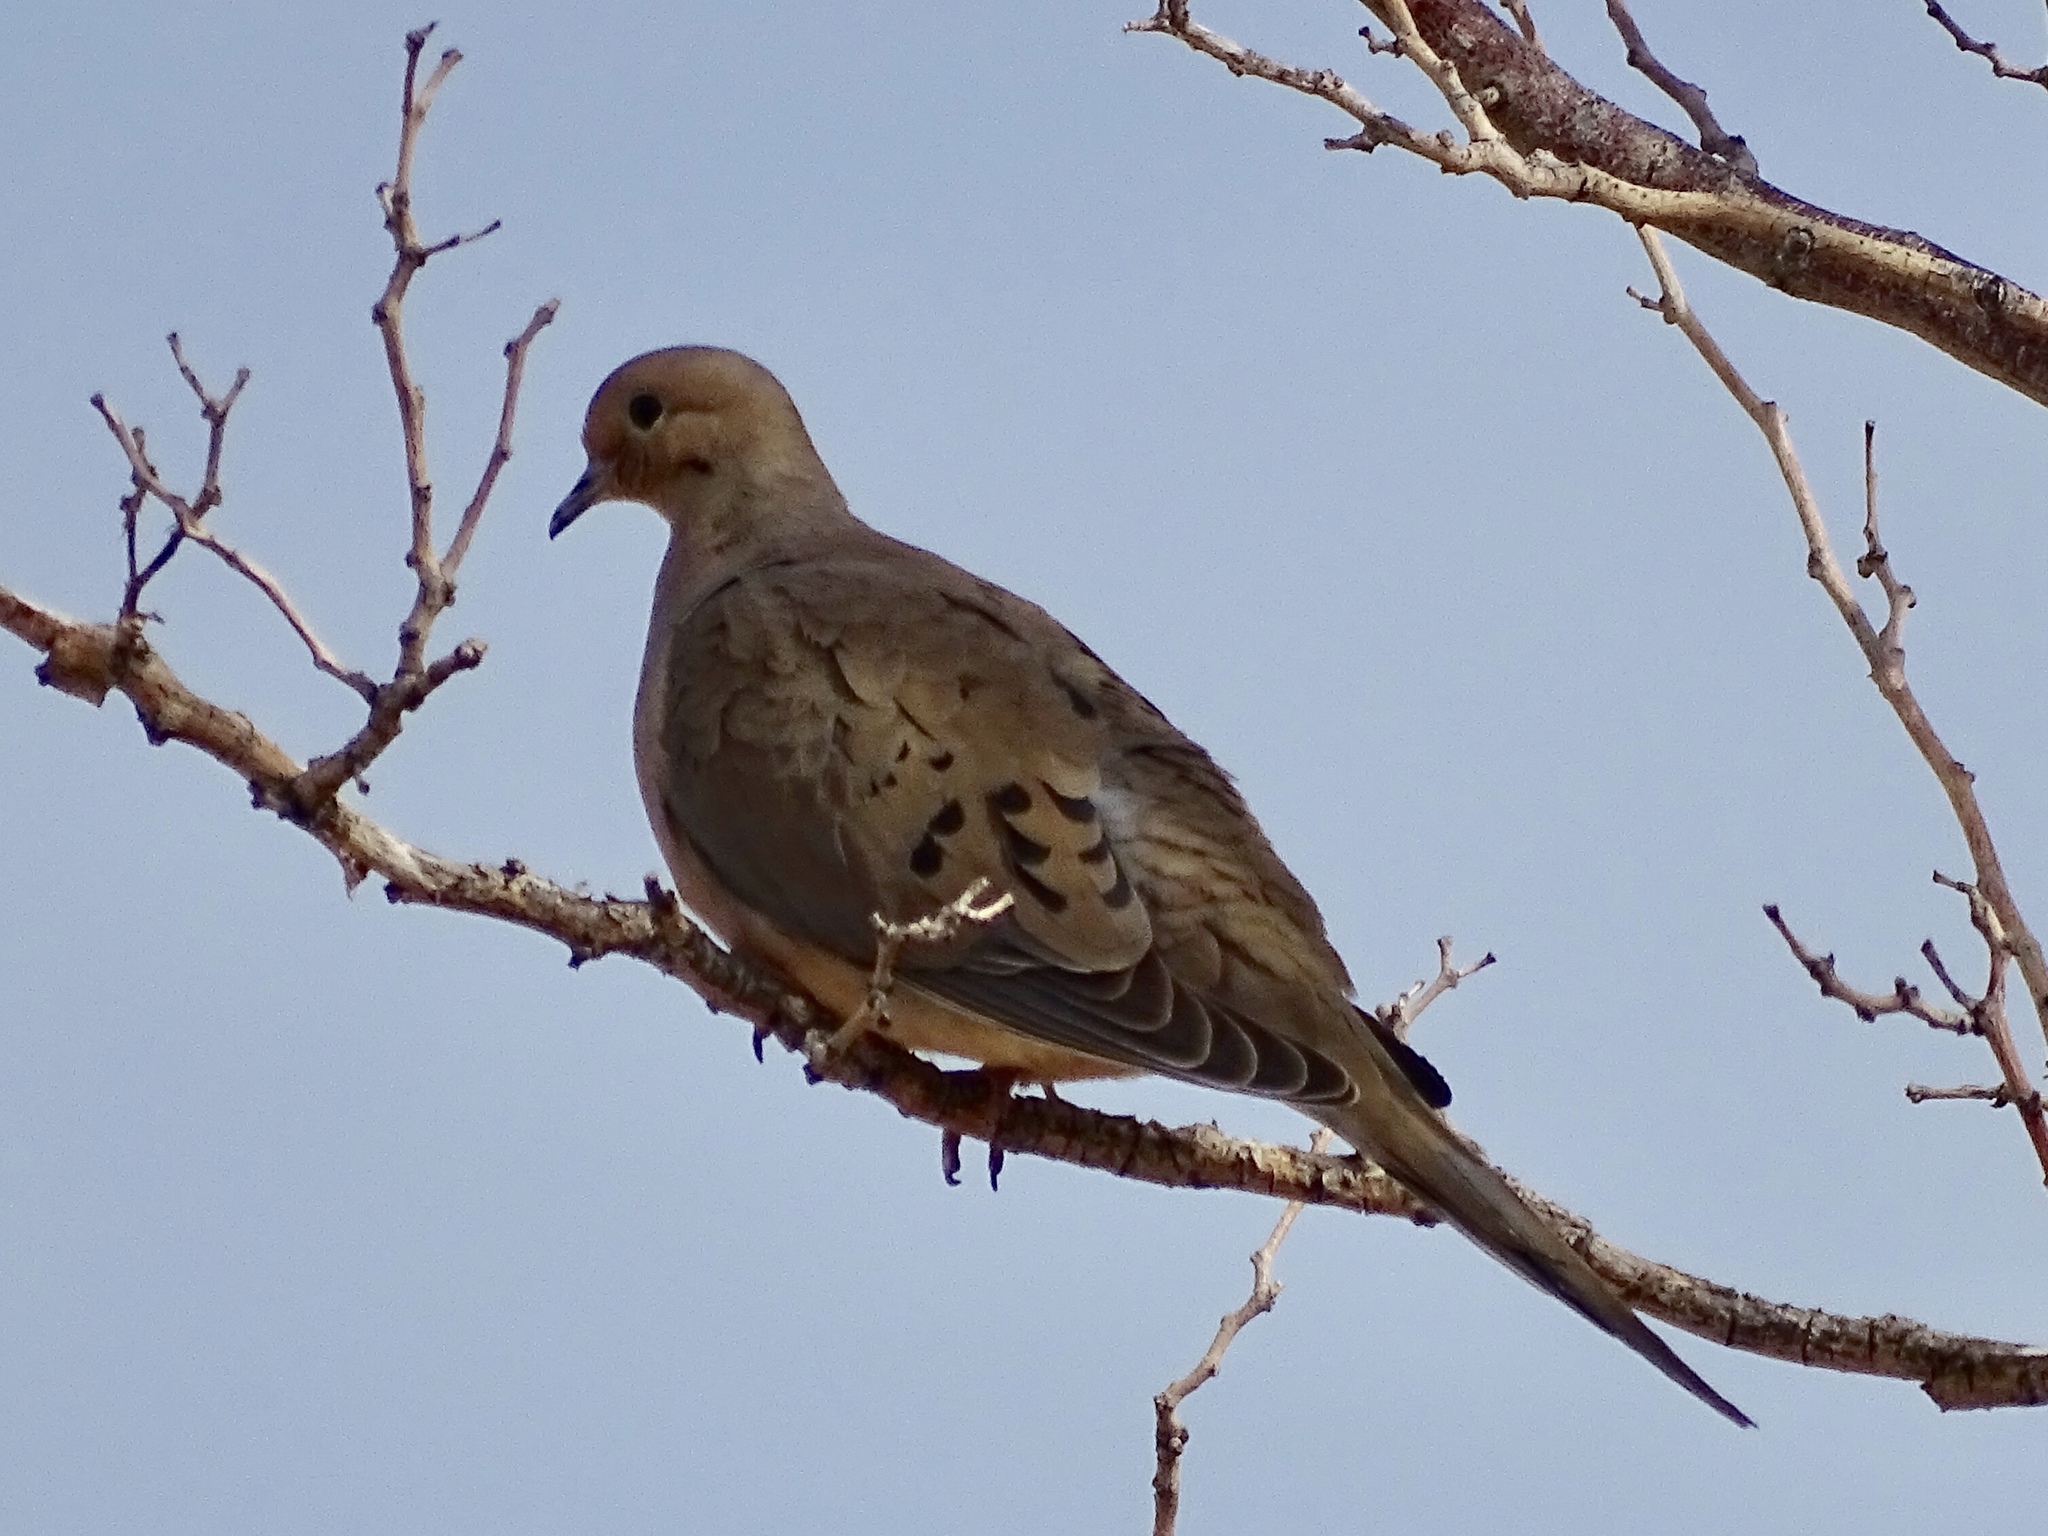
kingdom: Animalia
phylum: Chordata
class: Aves
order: Columbiformes
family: Columbidae
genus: Zenaida
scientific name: Zenaida macroura
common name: Mourning dove
